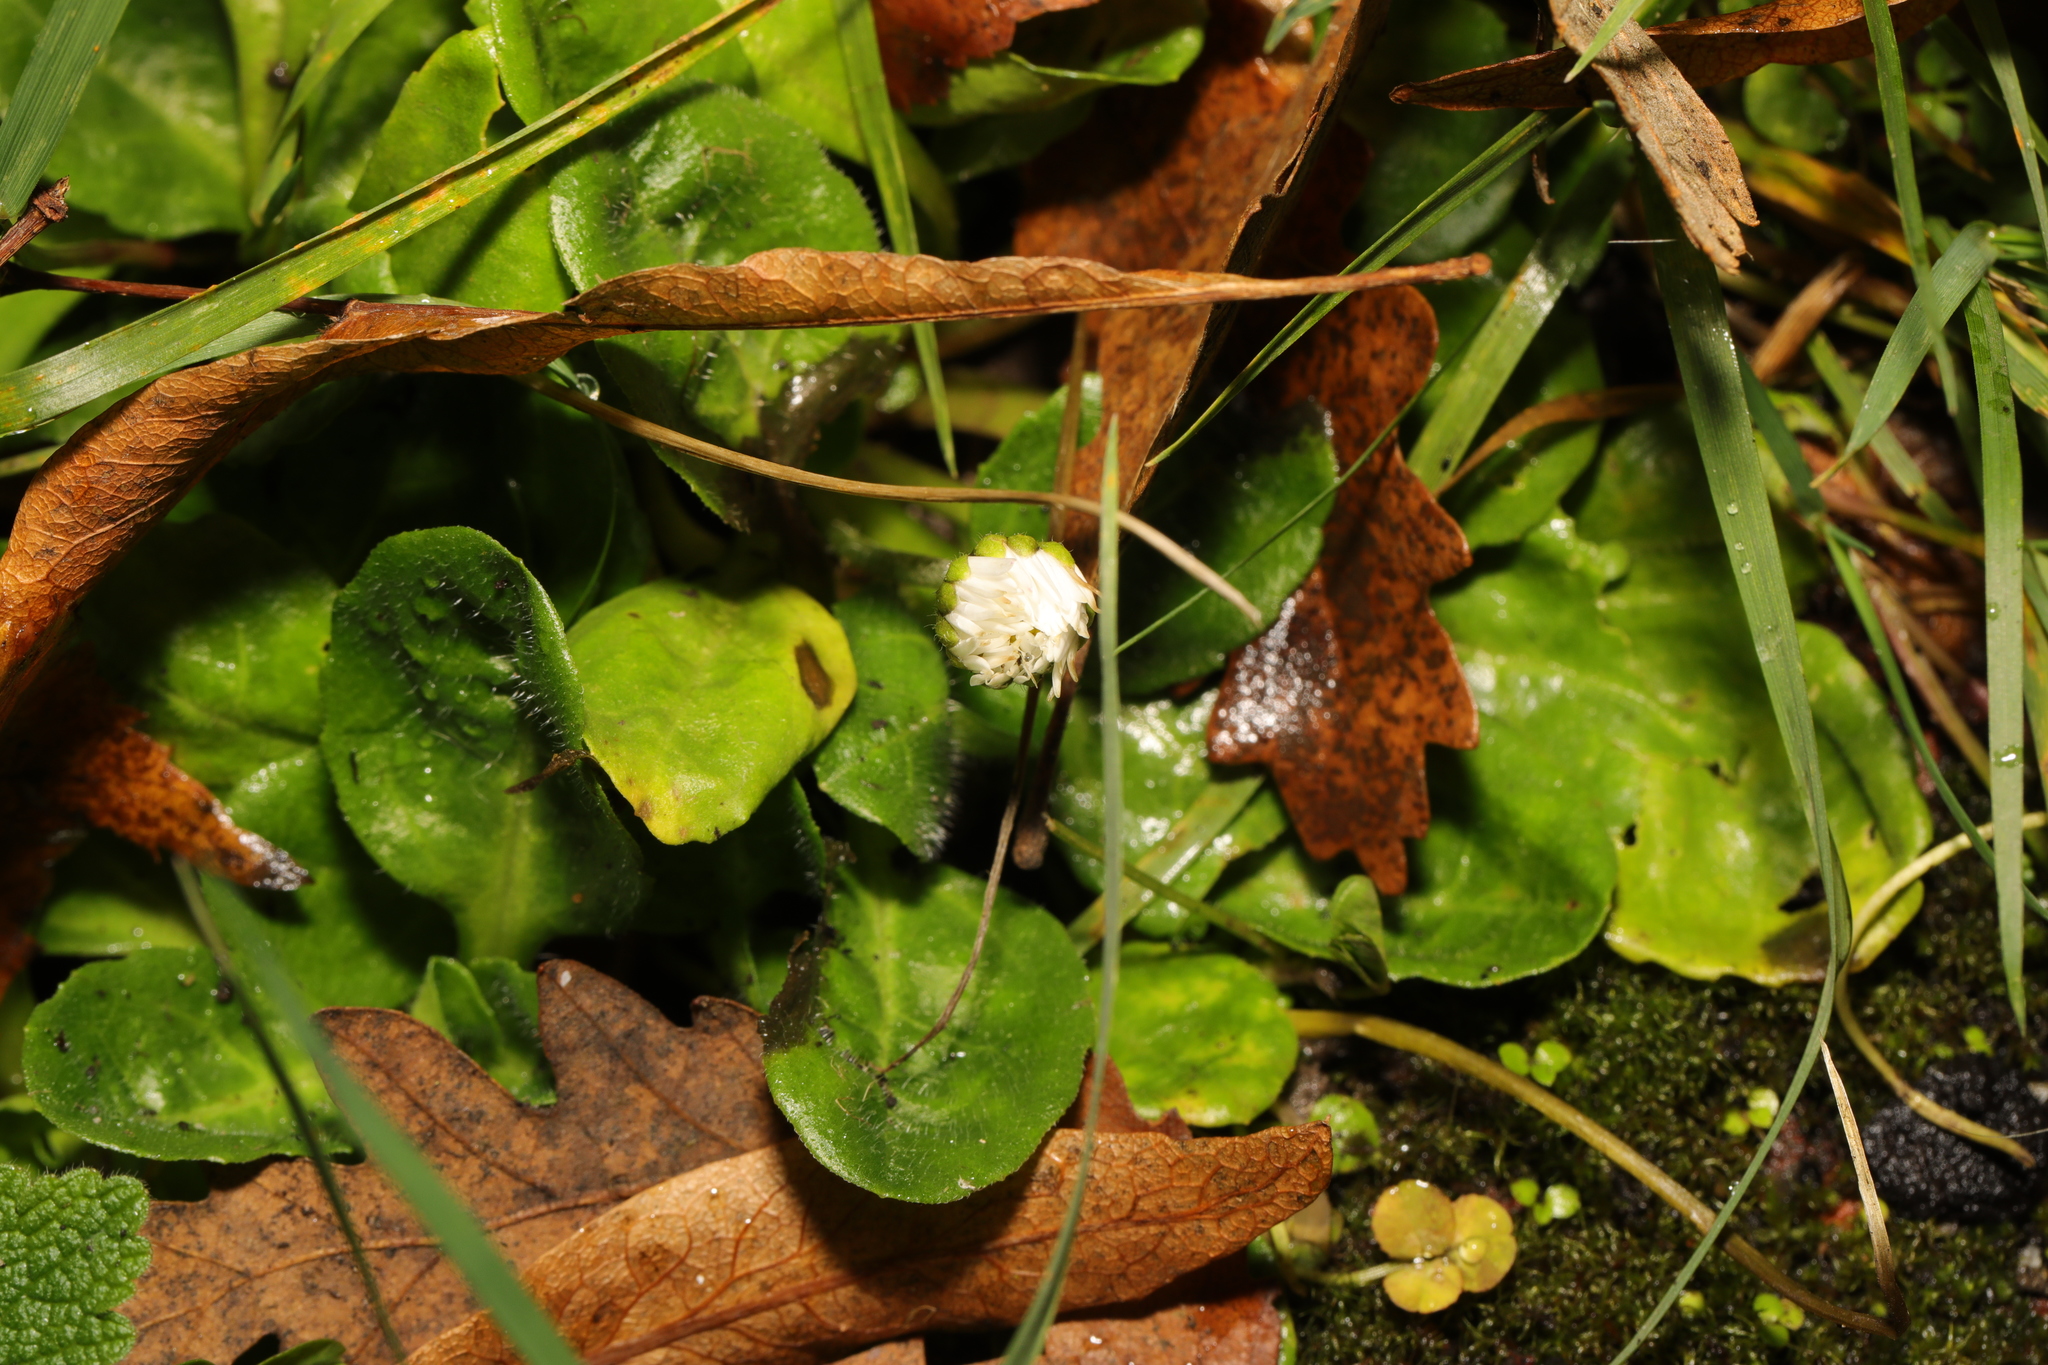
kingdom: Plantae
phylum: Tracheophyta
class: Magnoliopsida
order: Asterales
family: Asteraceae
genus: Bellis
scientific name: Bellis perennis
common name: Lawndaisy
